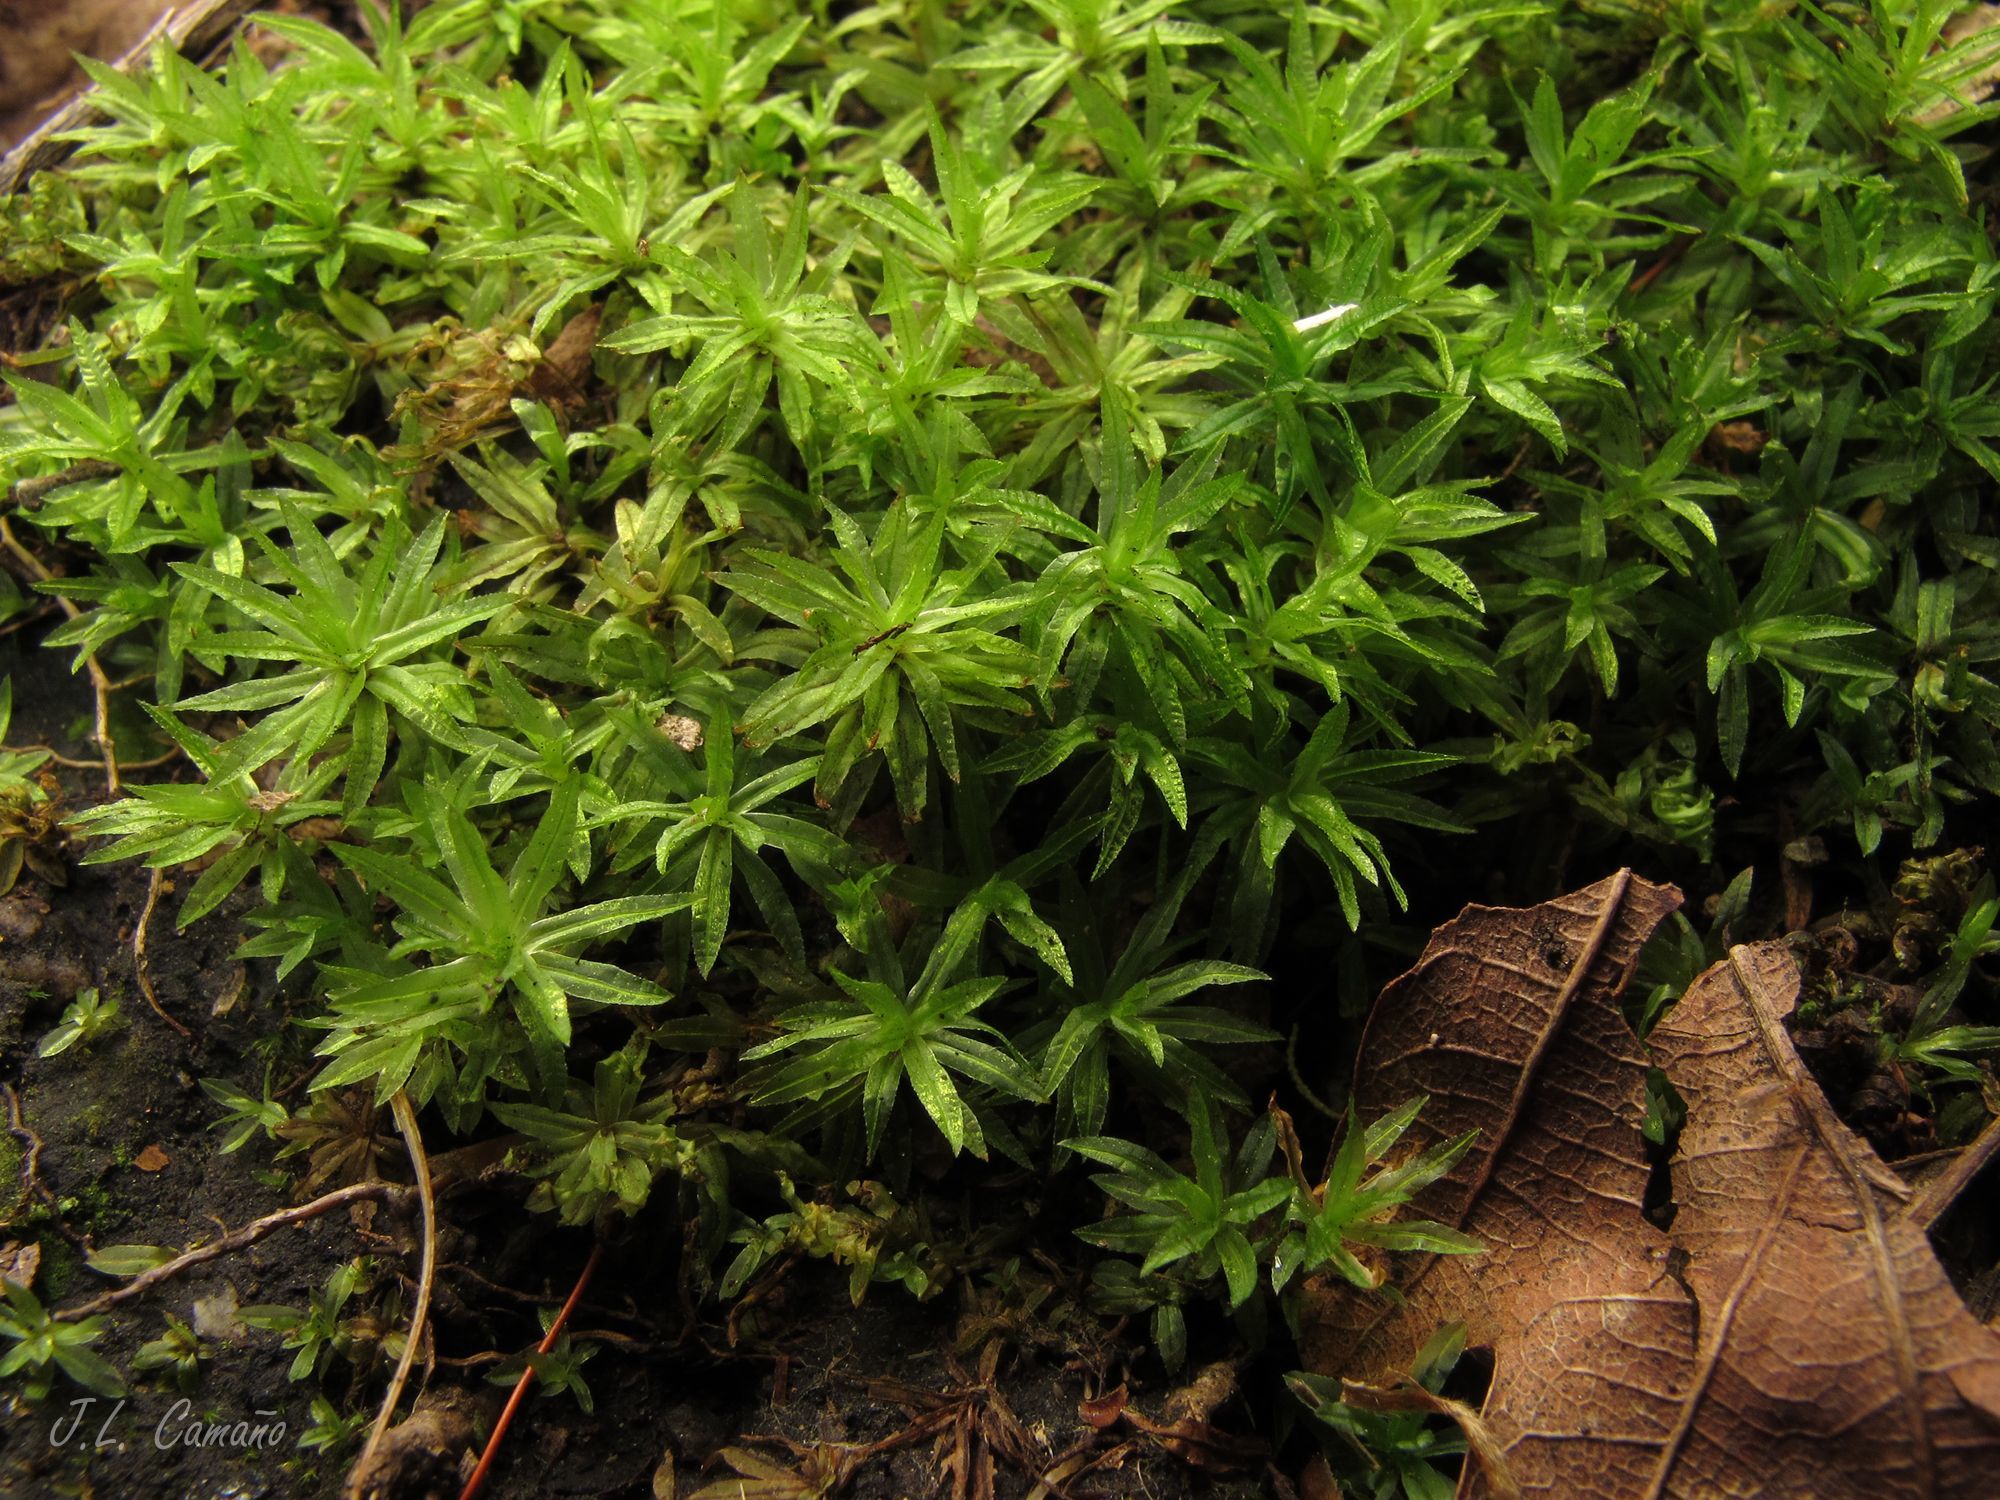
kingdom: Plantae
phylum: Bryophyta
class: Polytrichopsida
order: Polytrichales
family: Polytrichaceae
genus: Atrichum
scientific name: Atrichum undulatum
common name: Common smoothcap
